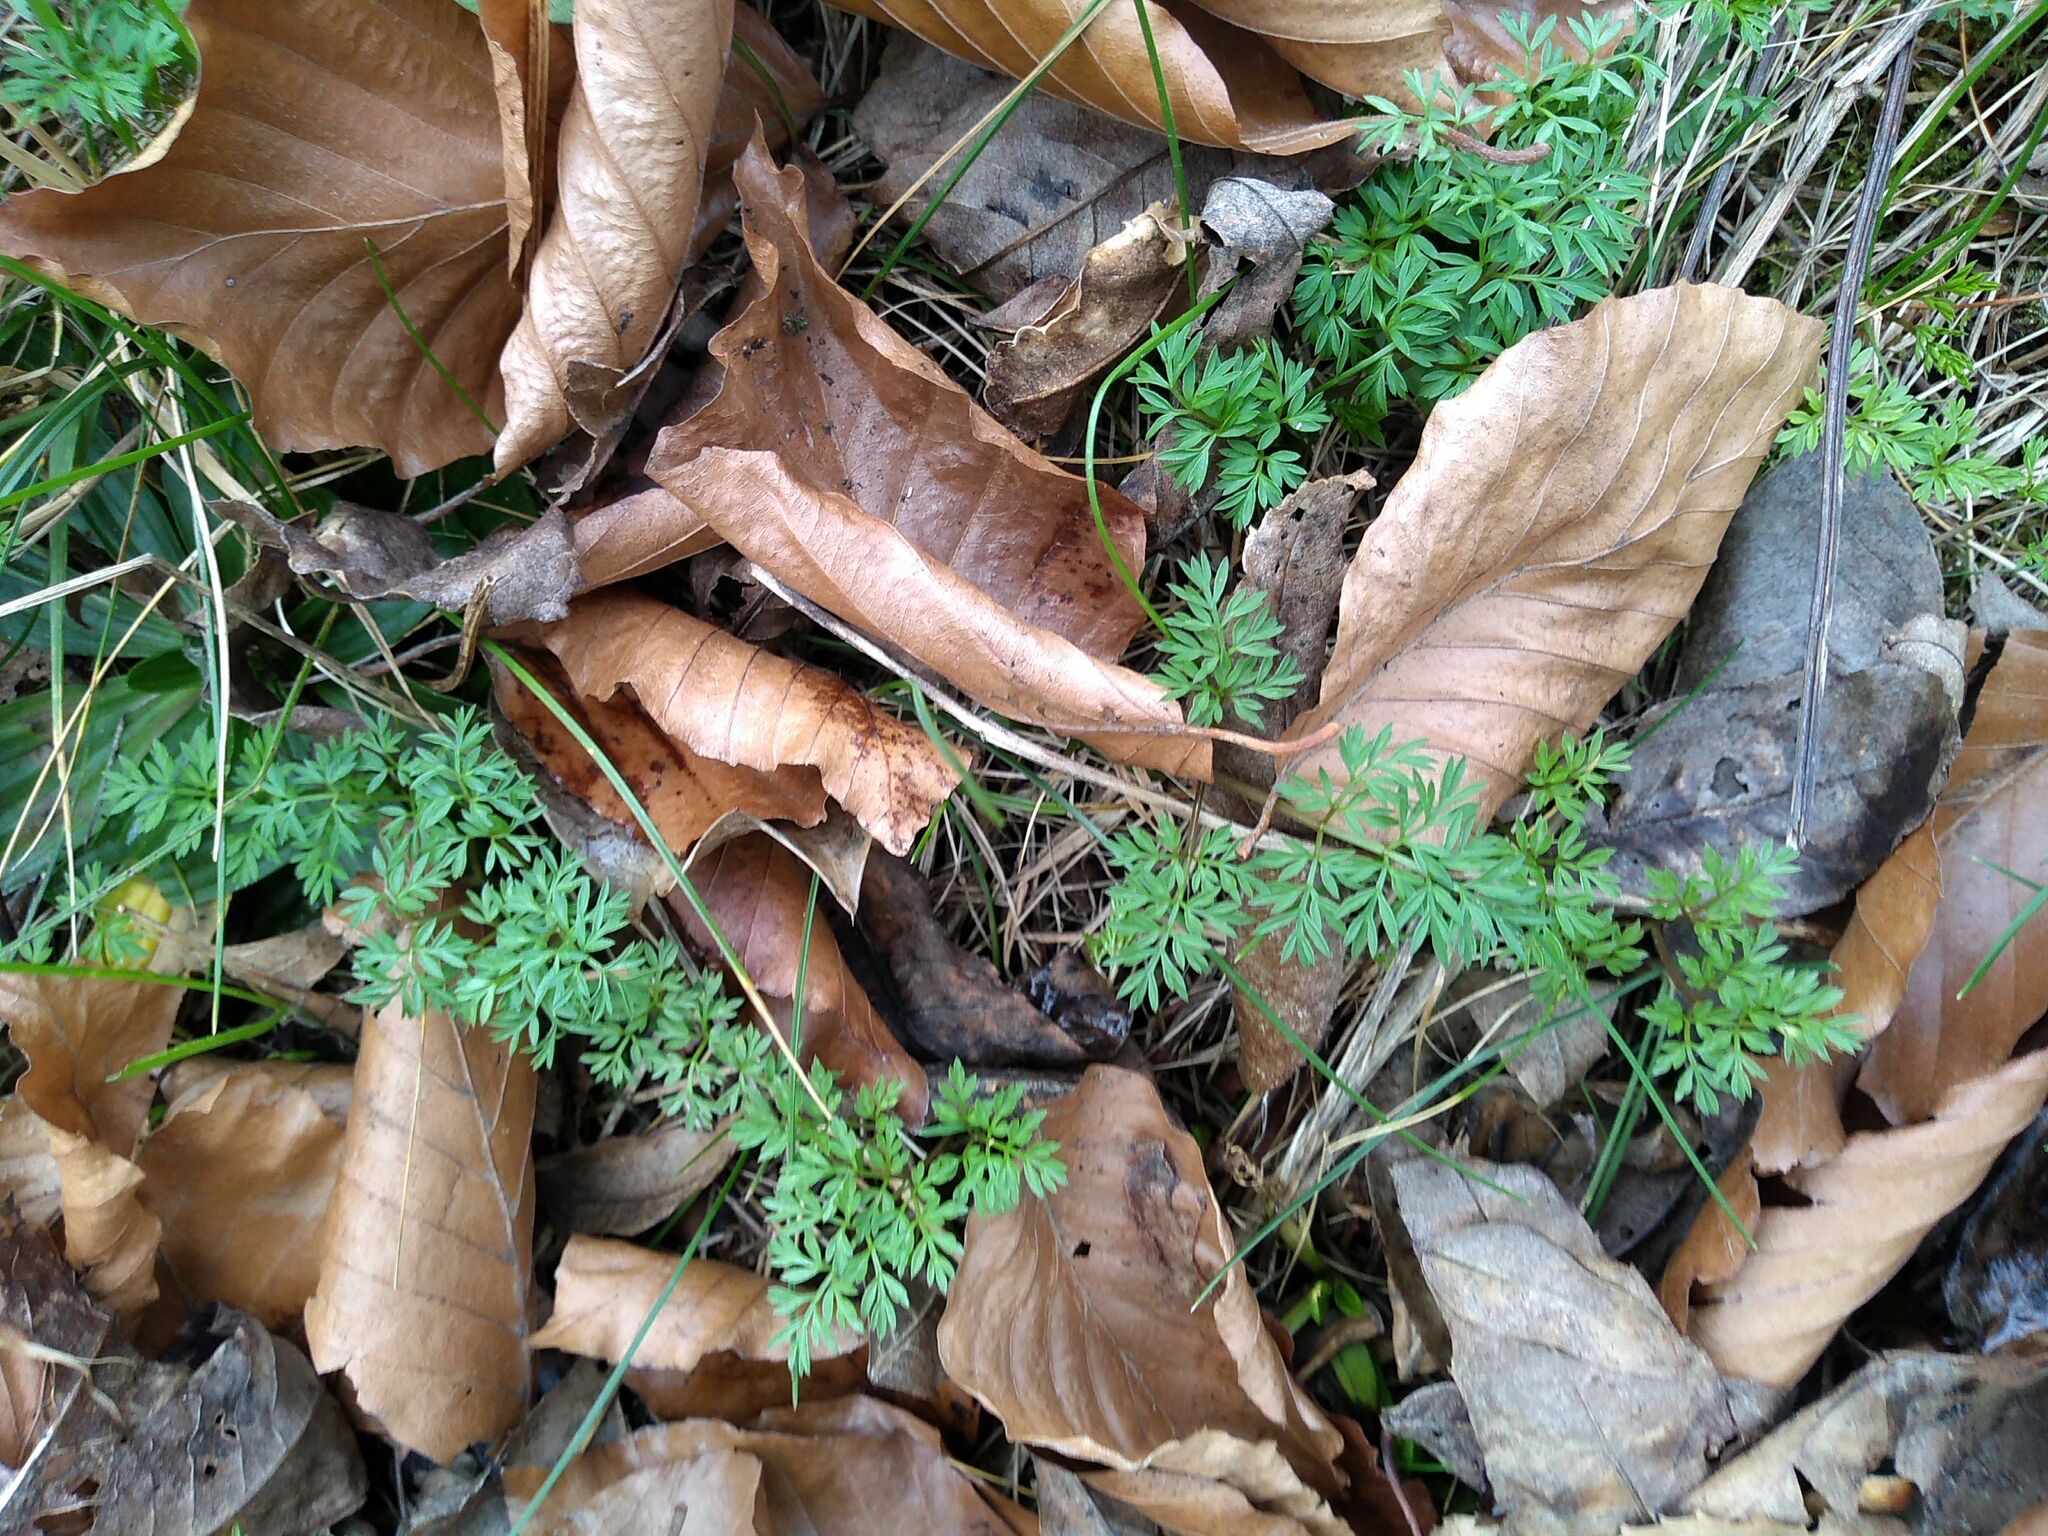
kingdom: Plantae
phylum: Tracheophyta
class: Magnoliopsida
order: Apiales
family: Apiaceae
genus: Conopodium
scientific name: Conopodium majus
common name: Pignut
